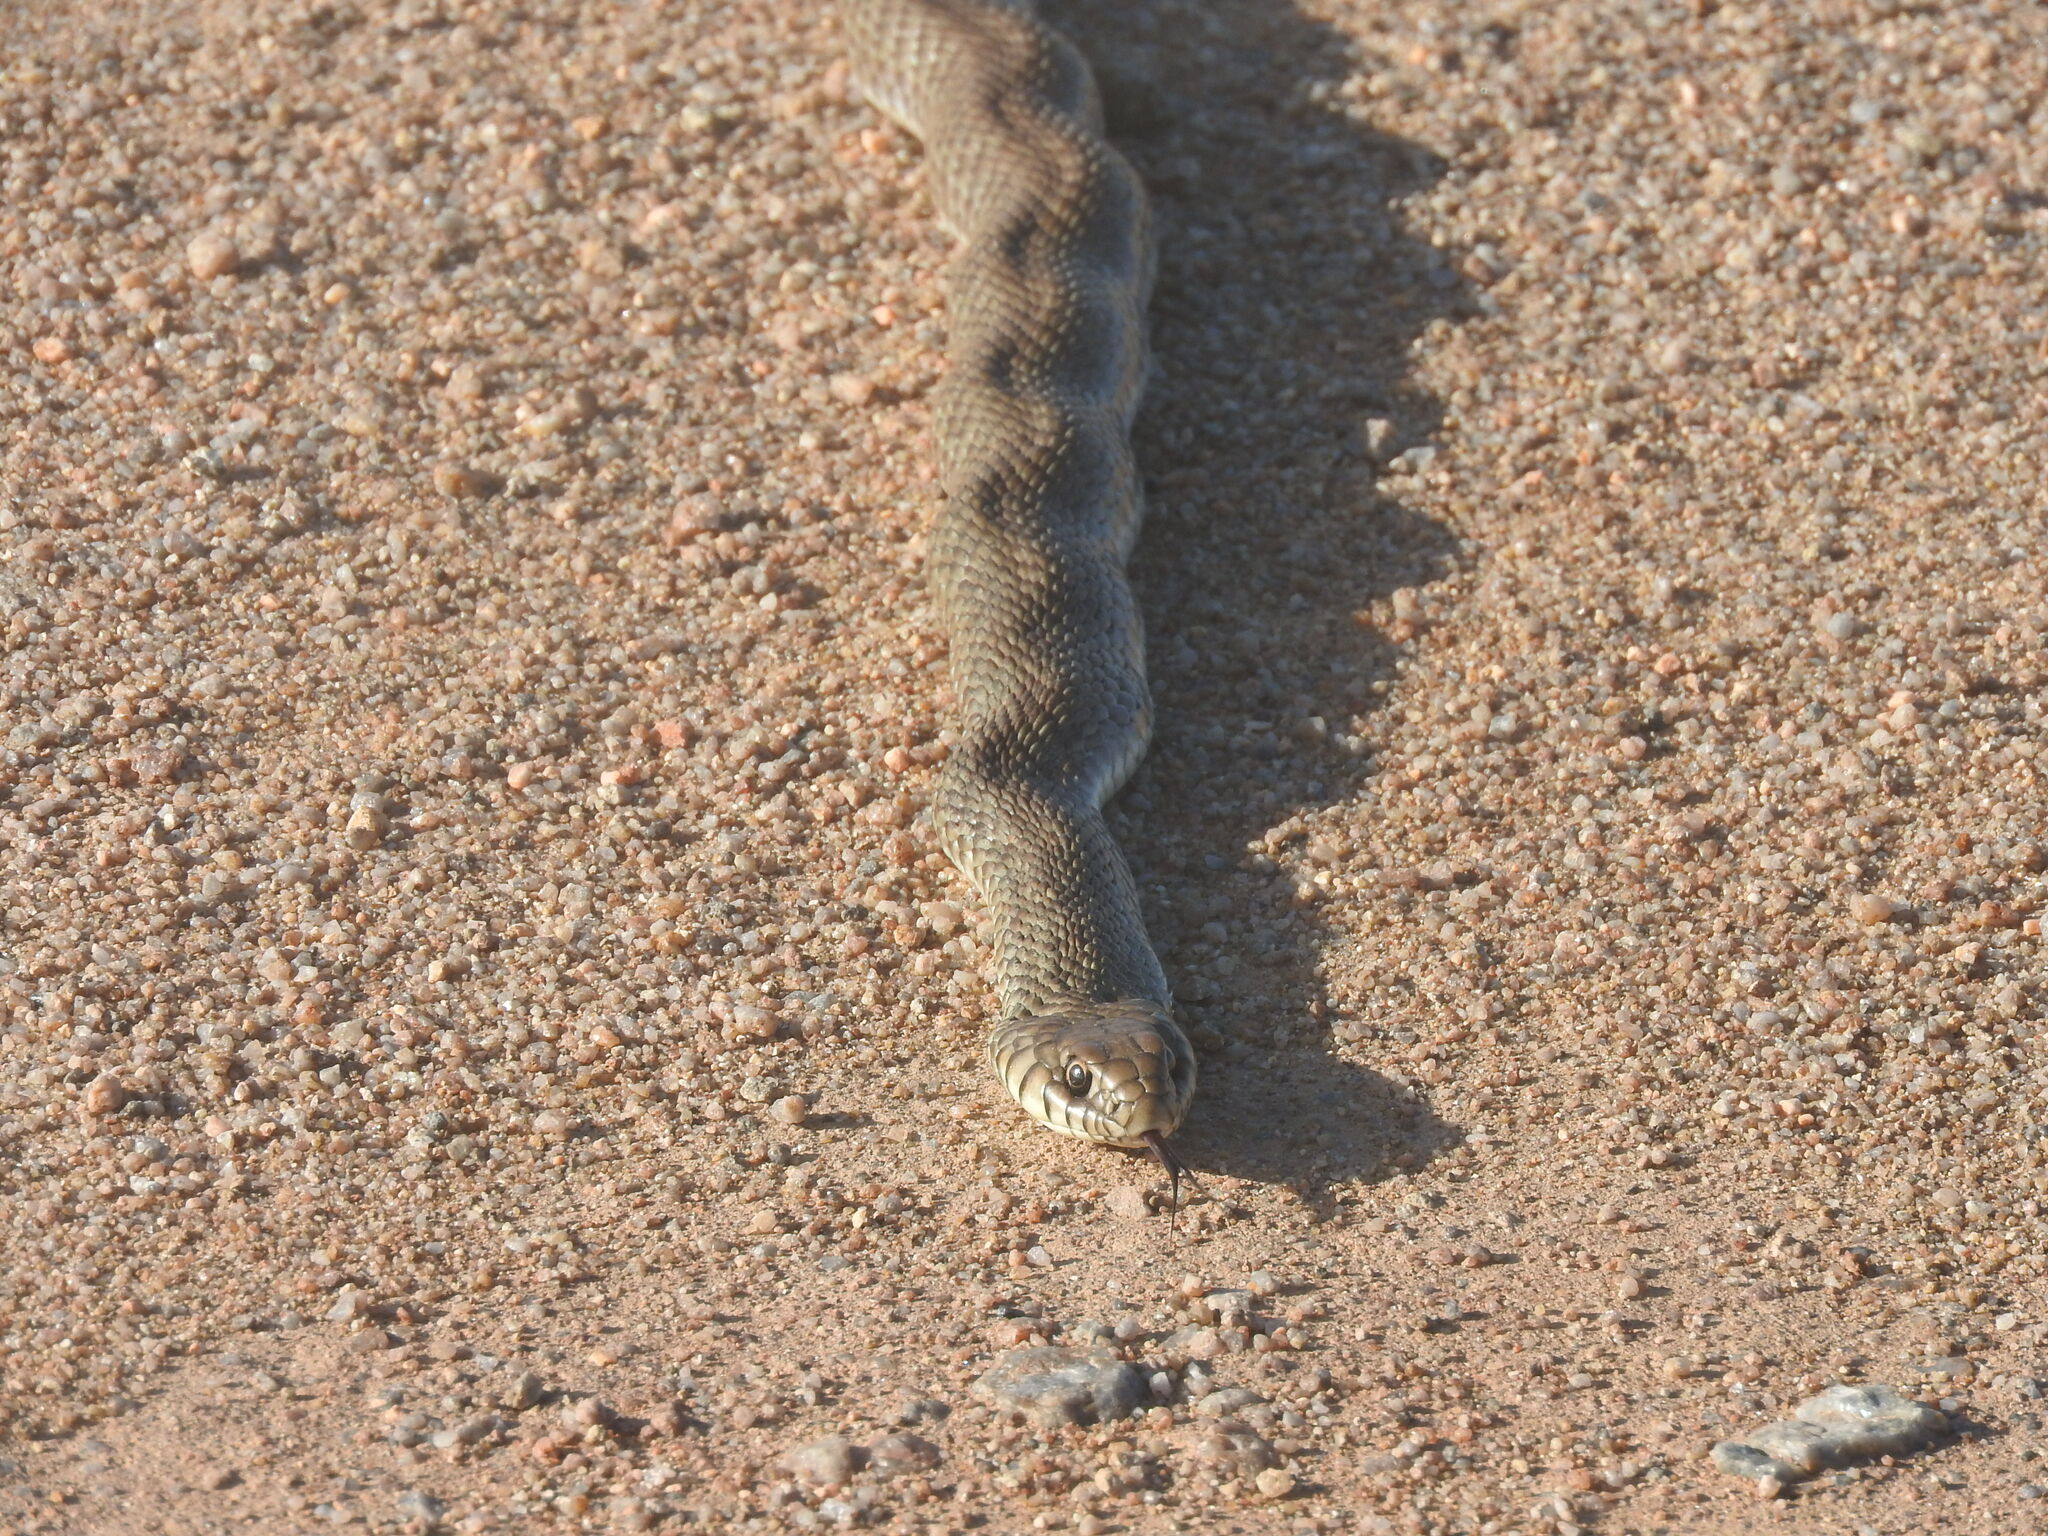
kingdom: Animalia
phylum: Chordata
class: Squamata
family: Colubridae
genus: Philodryas
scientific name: Philodryas patagoniensis
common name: Patagonia green racer
